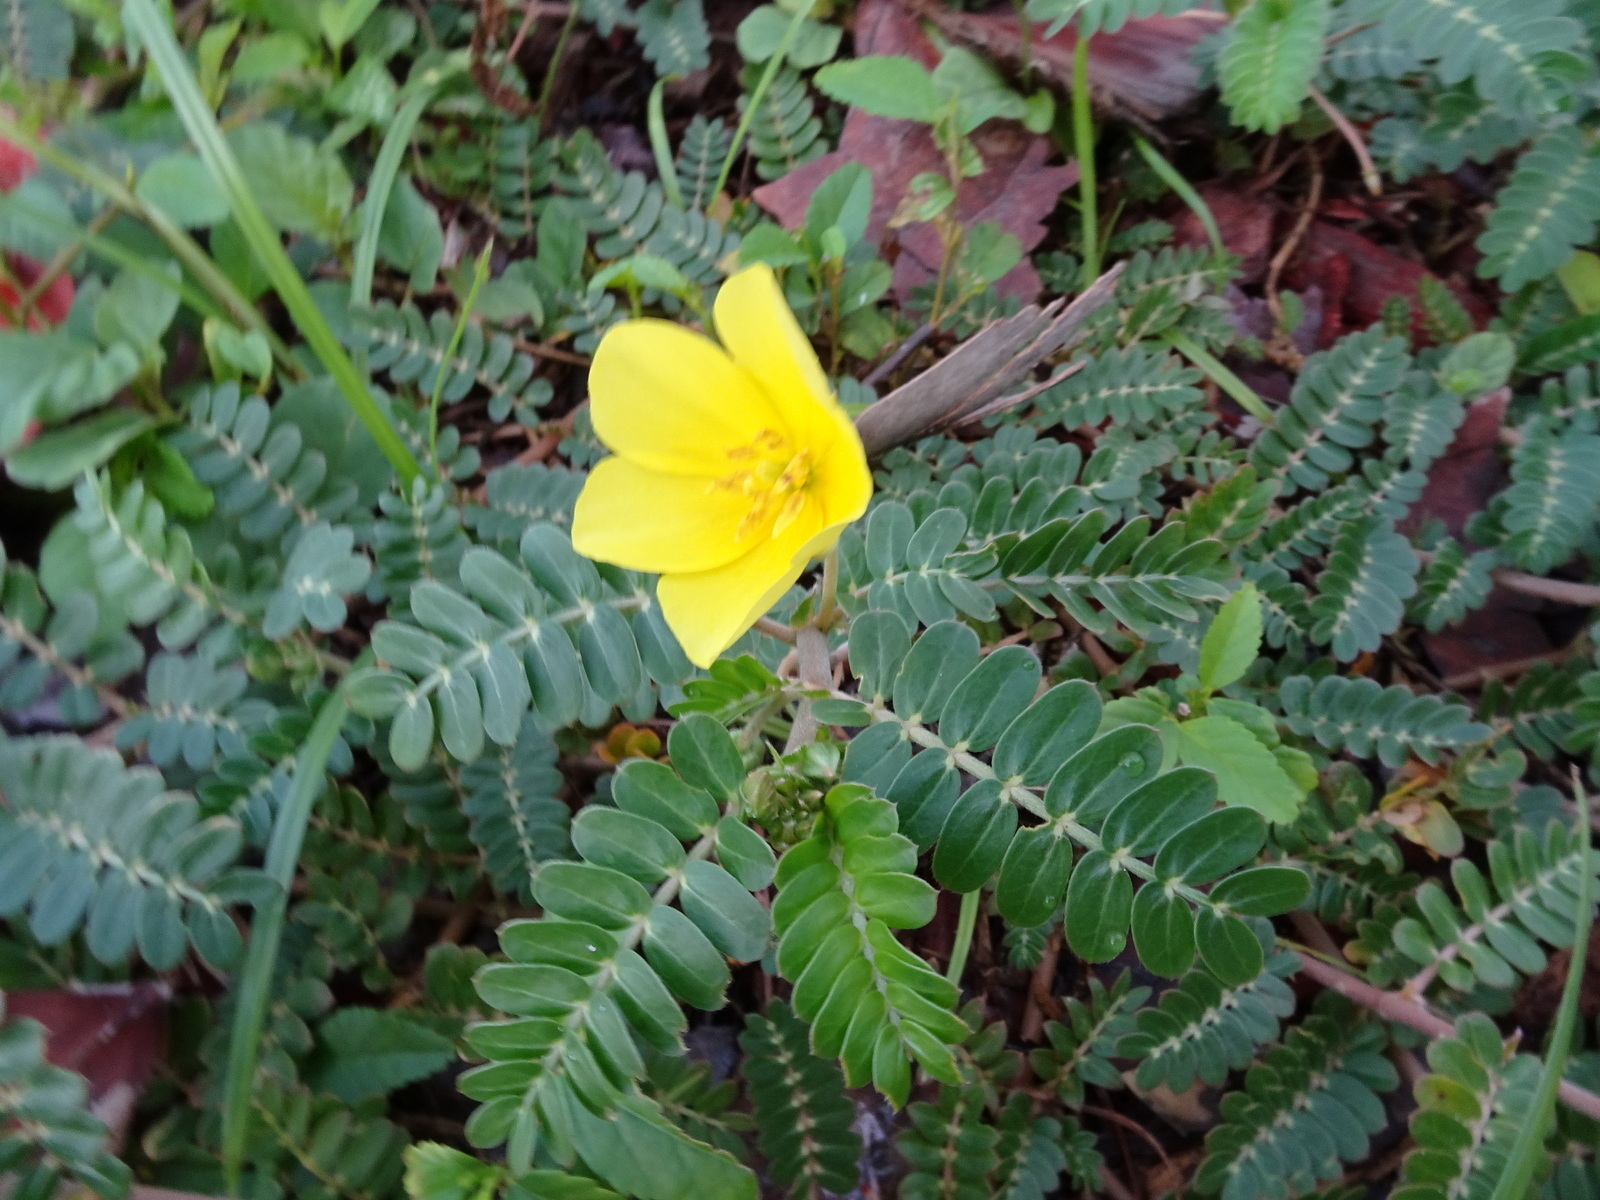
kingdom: Plantae
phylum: Tracheophyta
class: Magnoliopsida
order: Zygophyllales
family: Zygophyllaceae
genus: Tribulus
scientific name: Tribulus terrestris
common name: Puncturevine
